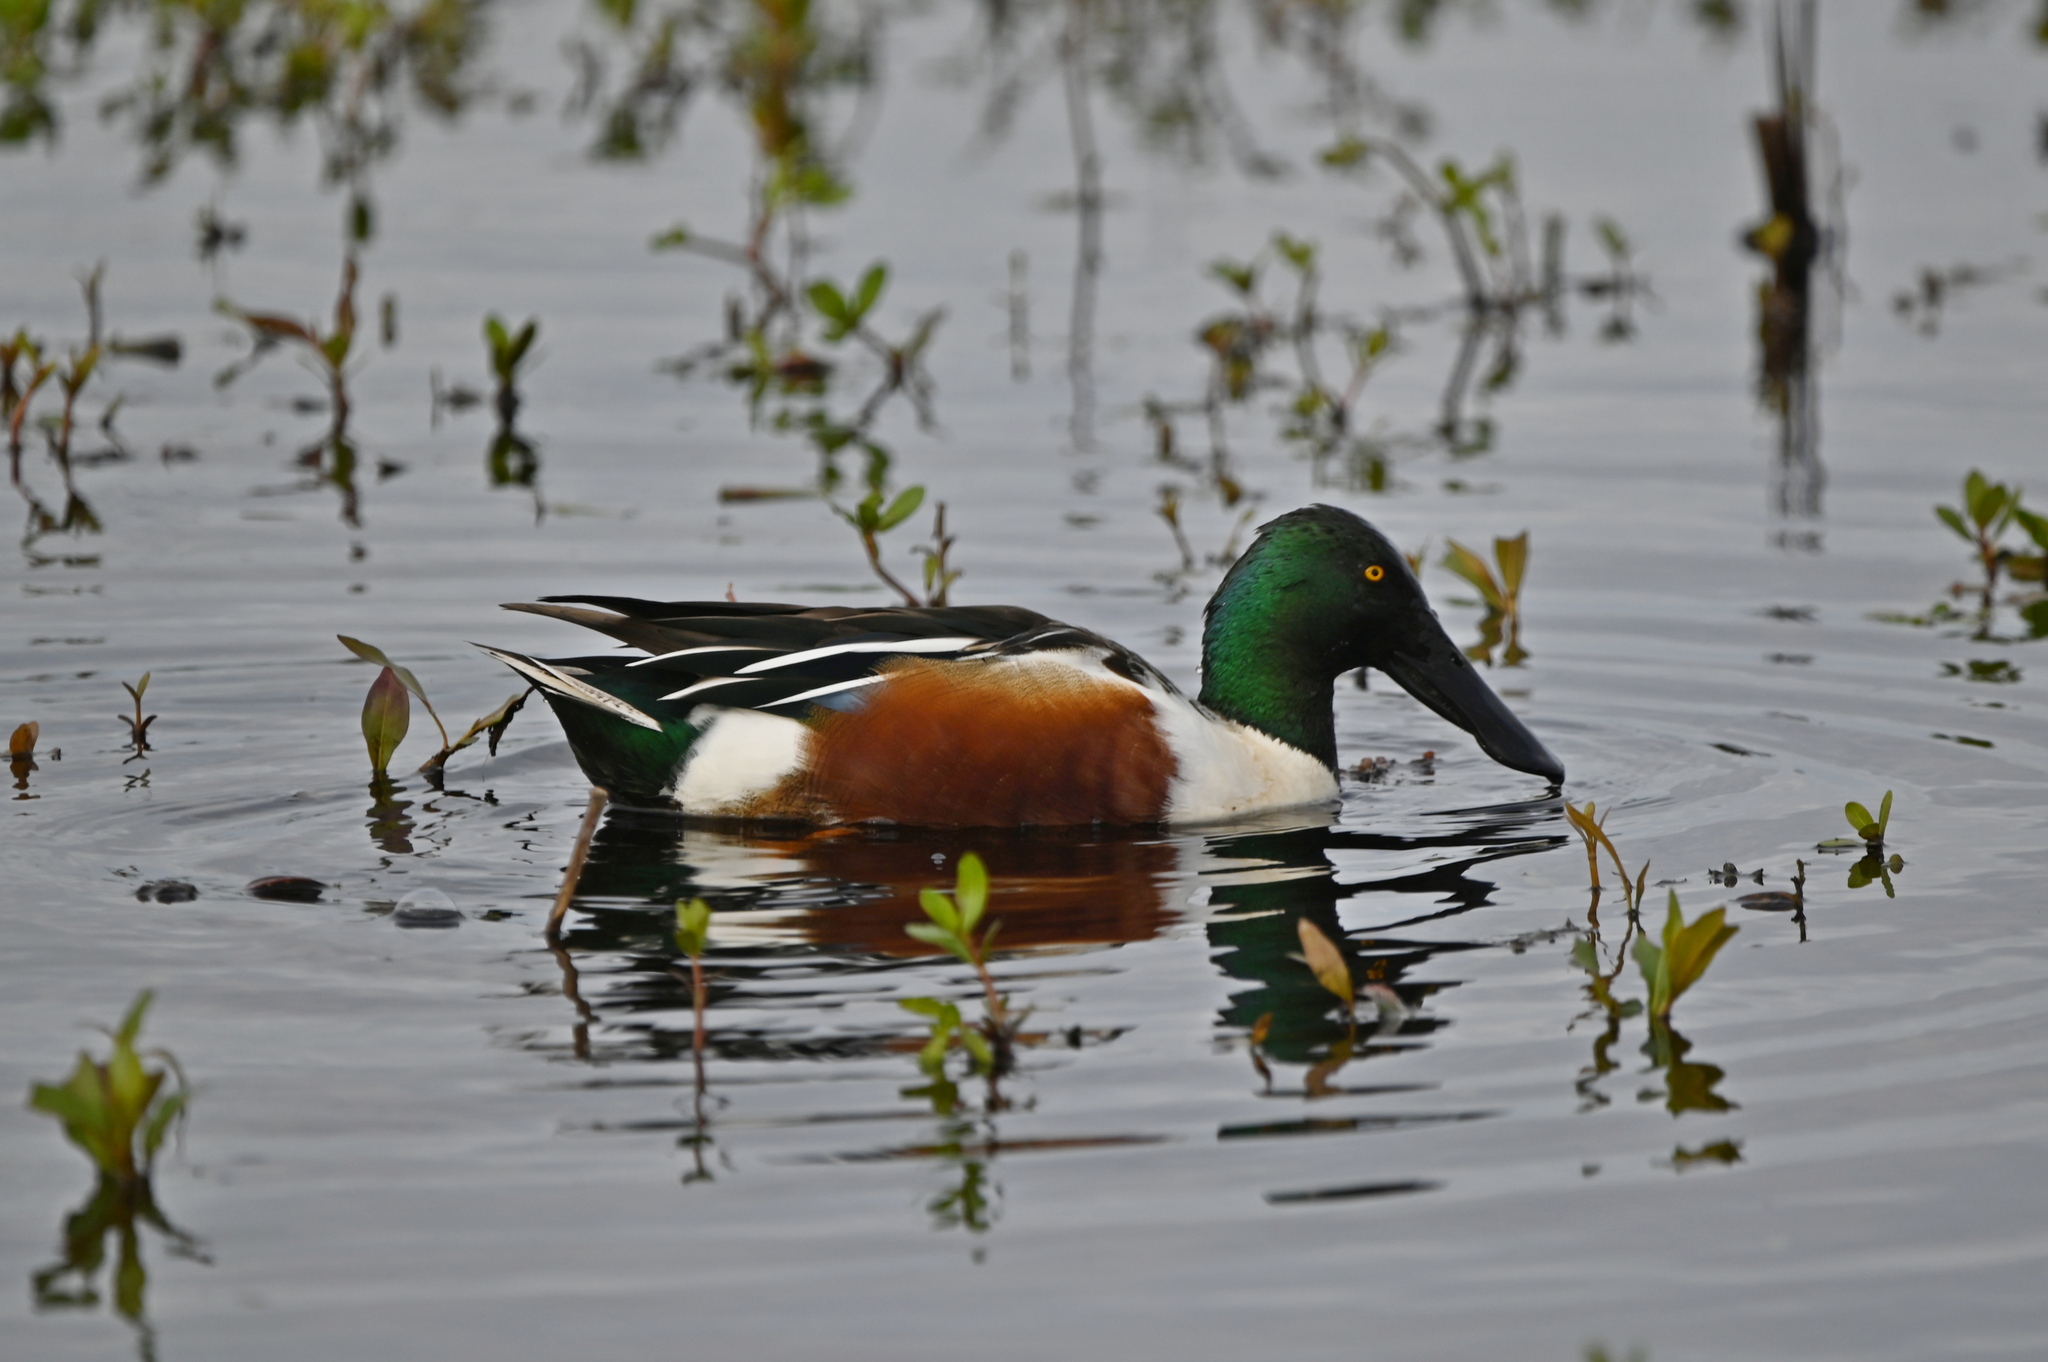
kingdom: Animalia
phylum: Chordata
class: Aves
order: Anseriformes
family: Anatidae
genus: Spatula
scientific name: Spatula clypeata
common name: Northern shoveler
